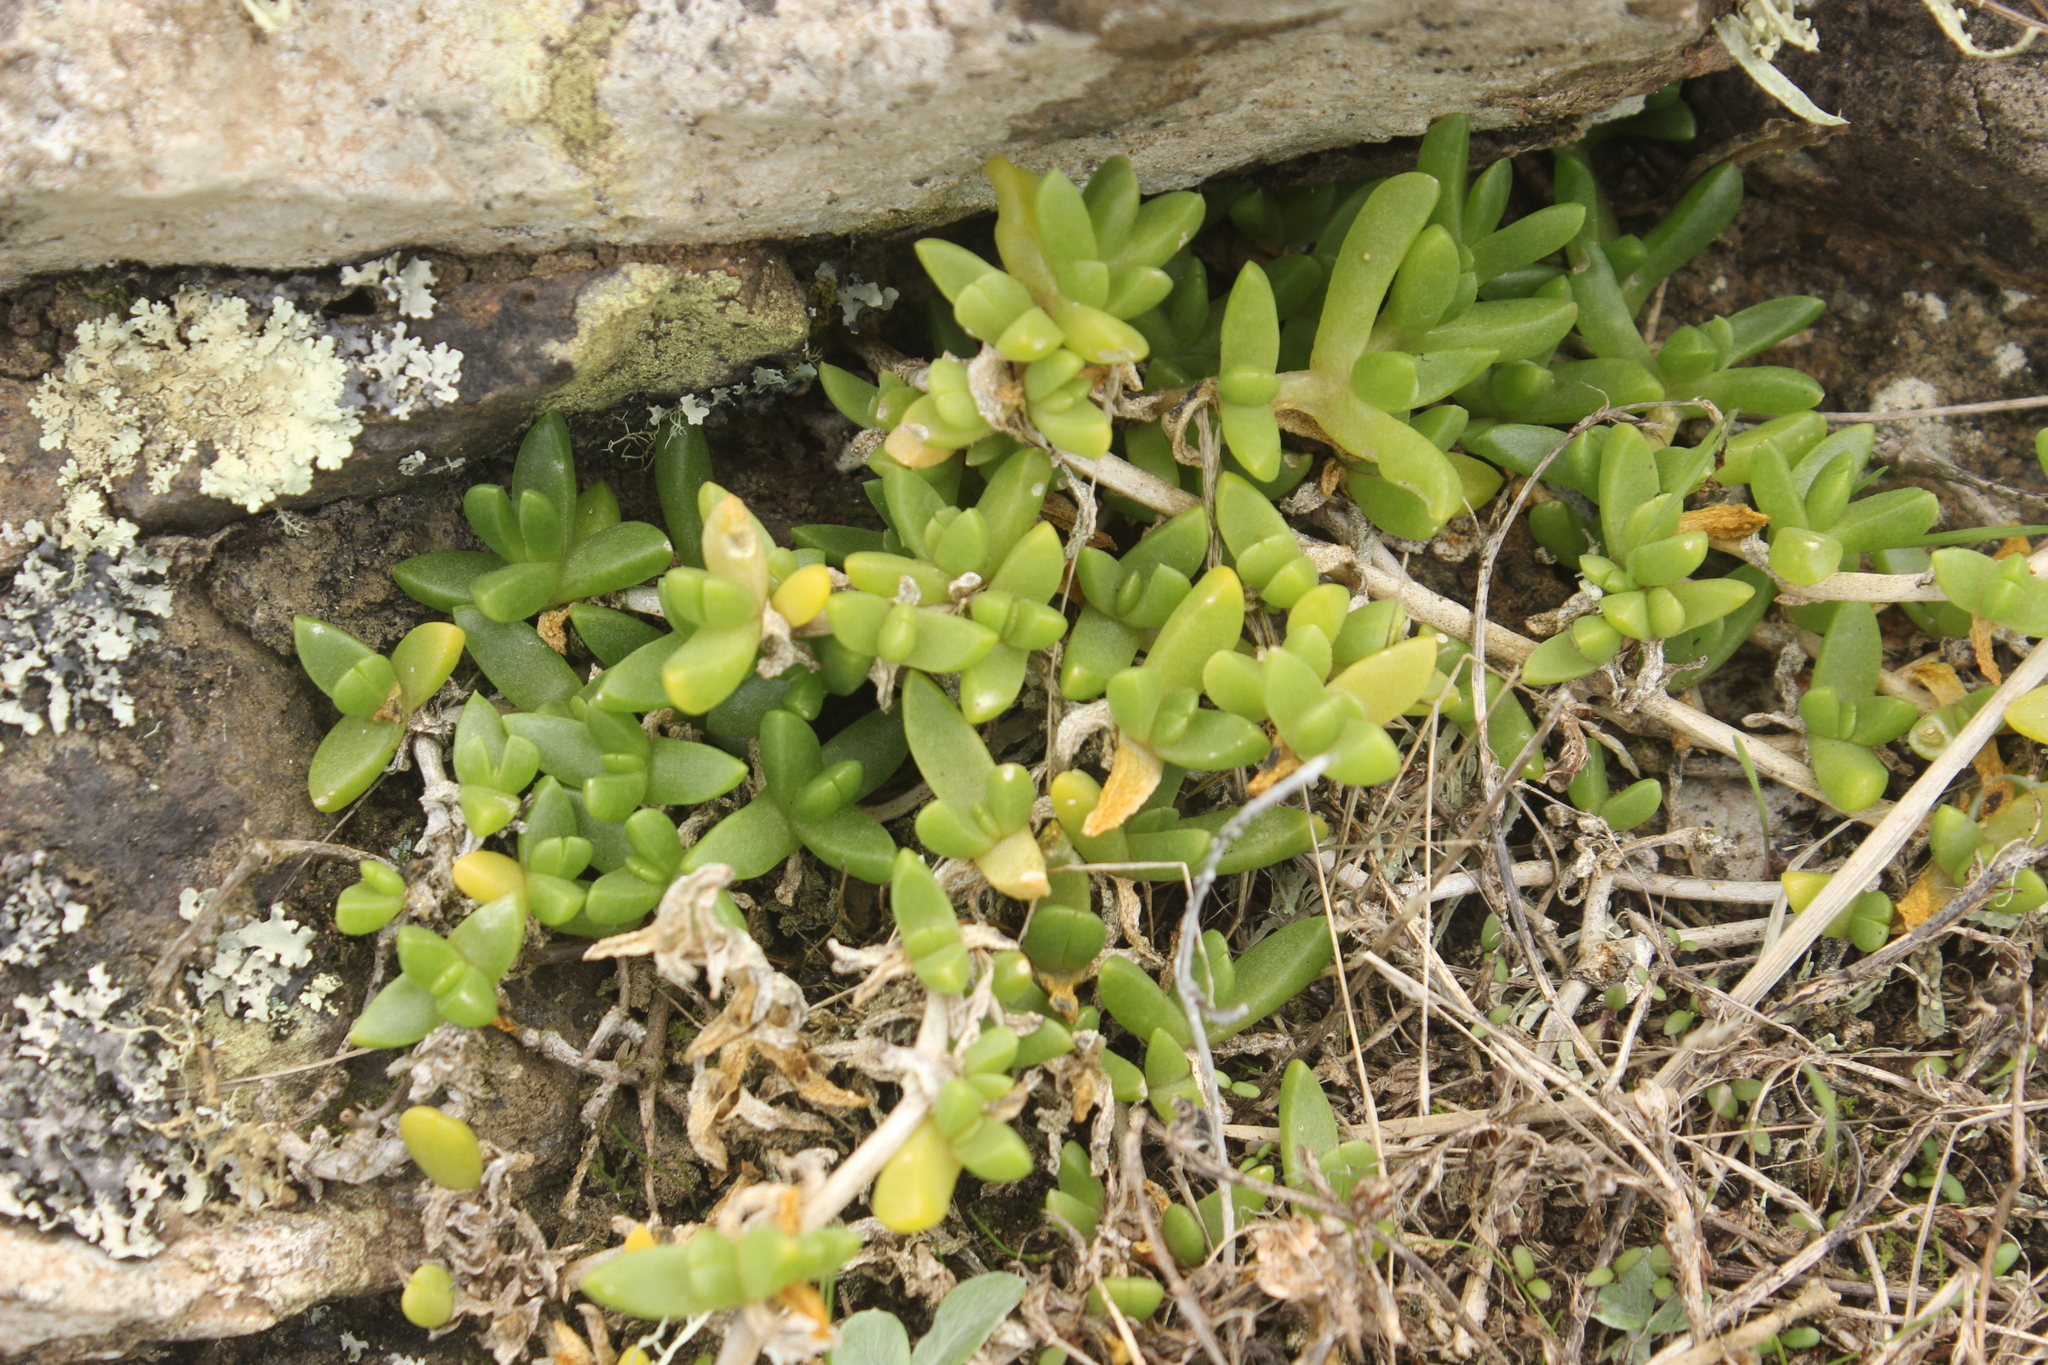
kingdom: Plantae
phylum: Tracheophyta
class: Magnoliopsida
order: Caryophyllales
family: Aizoaceae
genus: Disphyma
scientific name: Disphyma papillatum
